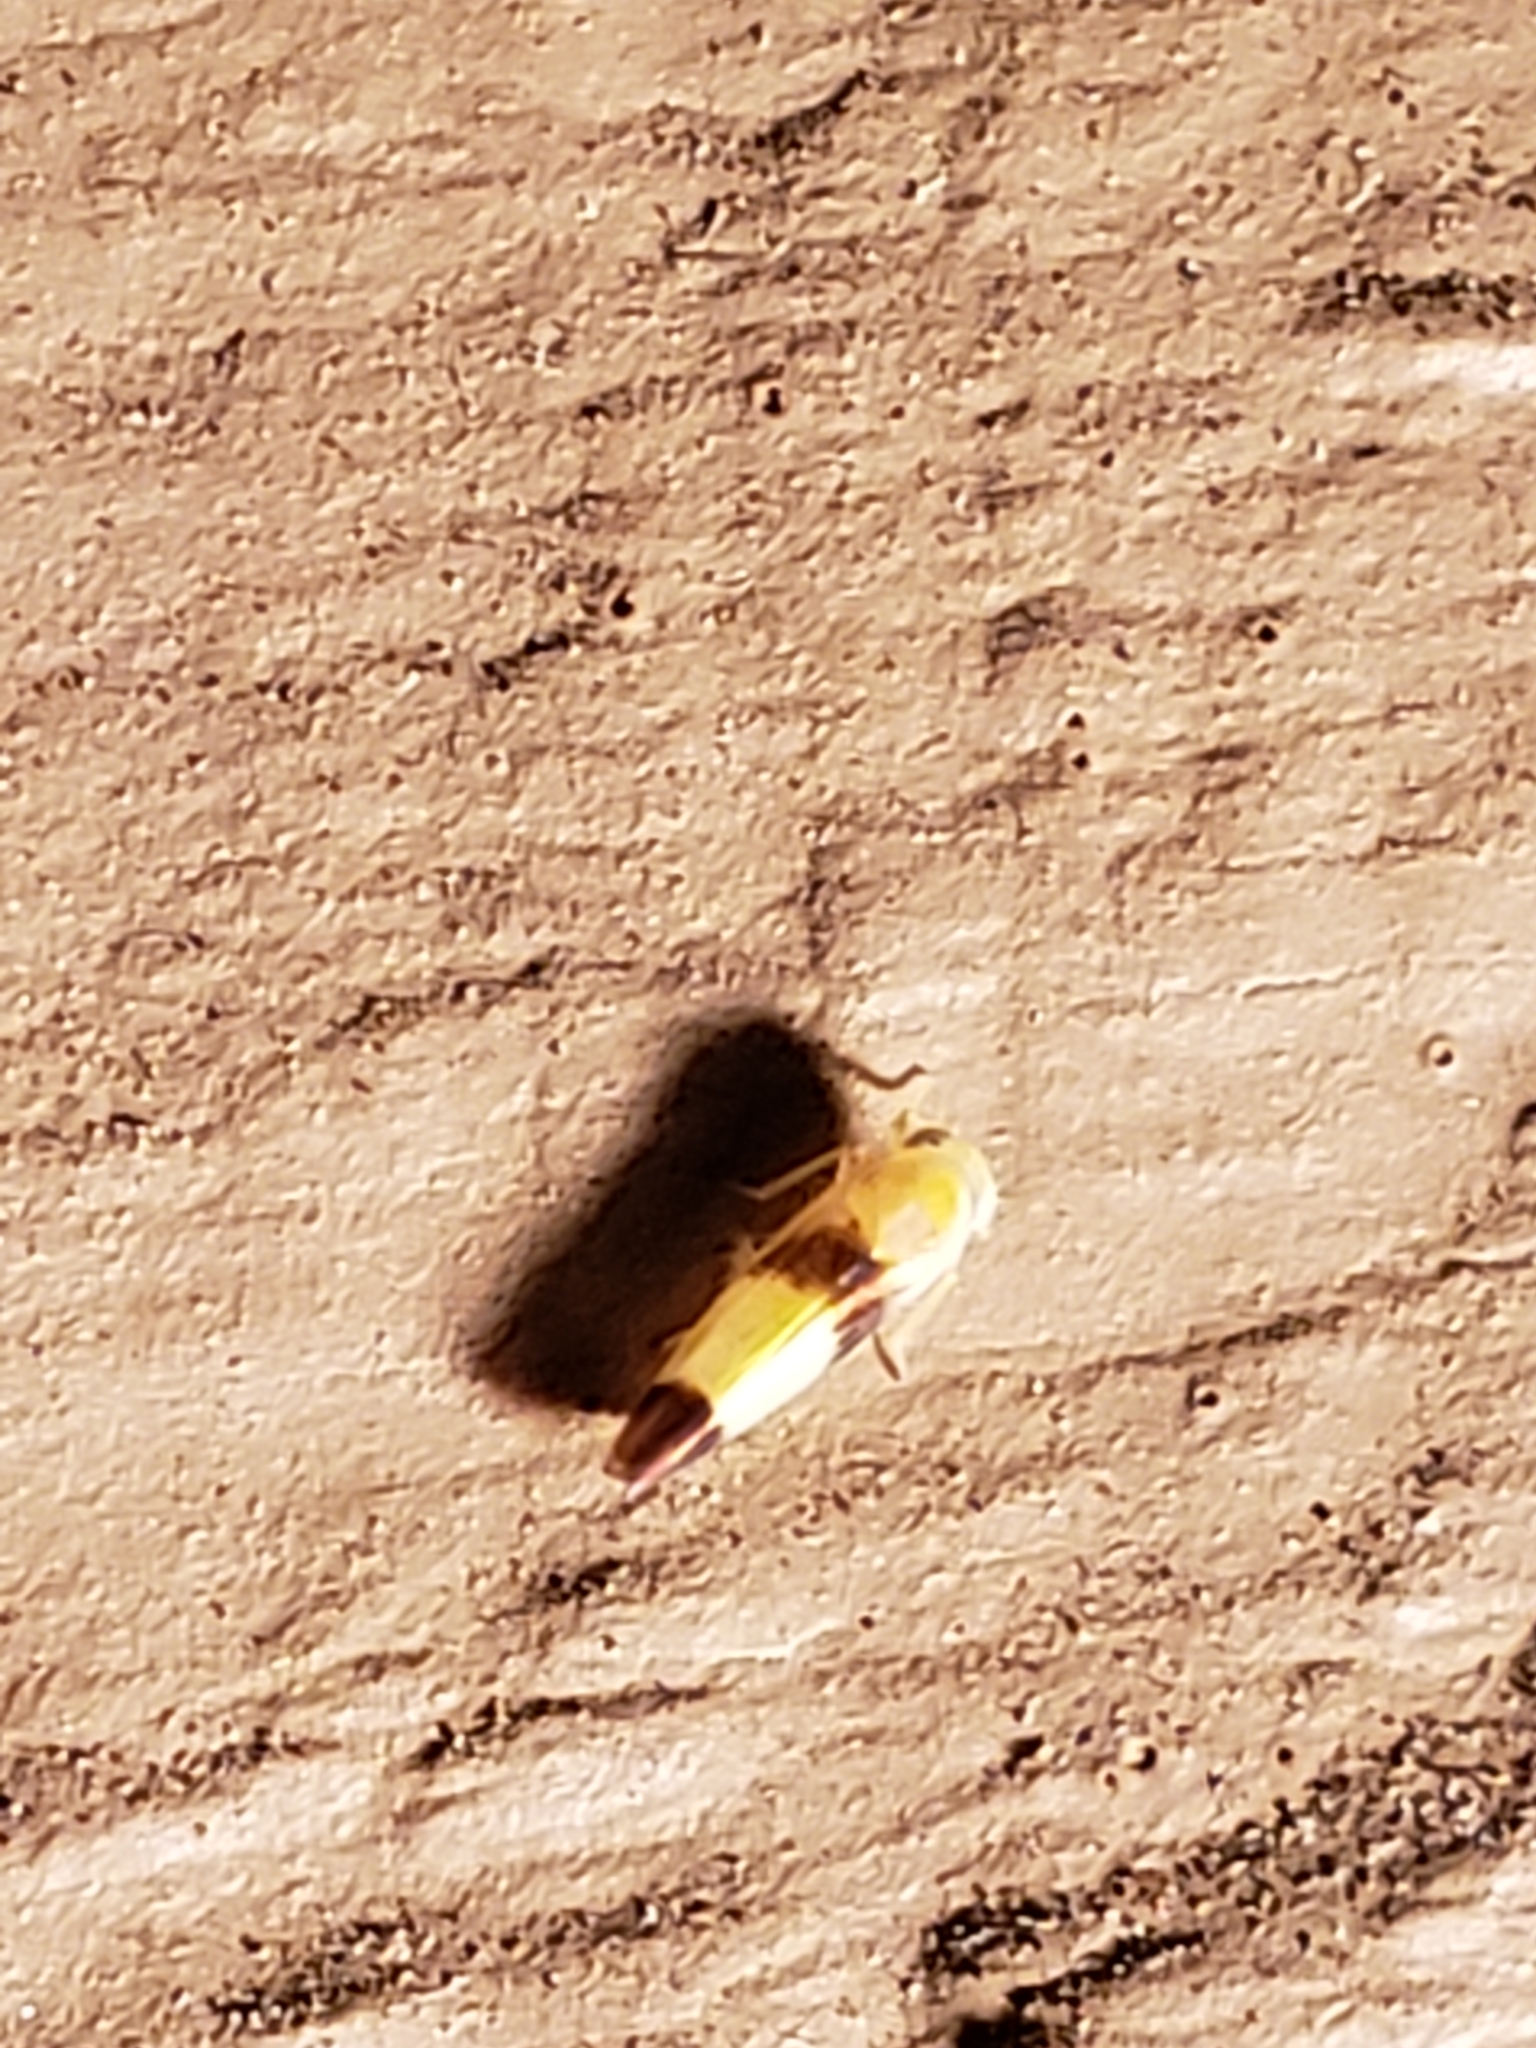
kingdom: Animalia
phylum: Arthropoda
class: Insecta
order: Hemiptera
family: Cicadellidae
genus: Alebra
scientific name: Alebra bicincta
